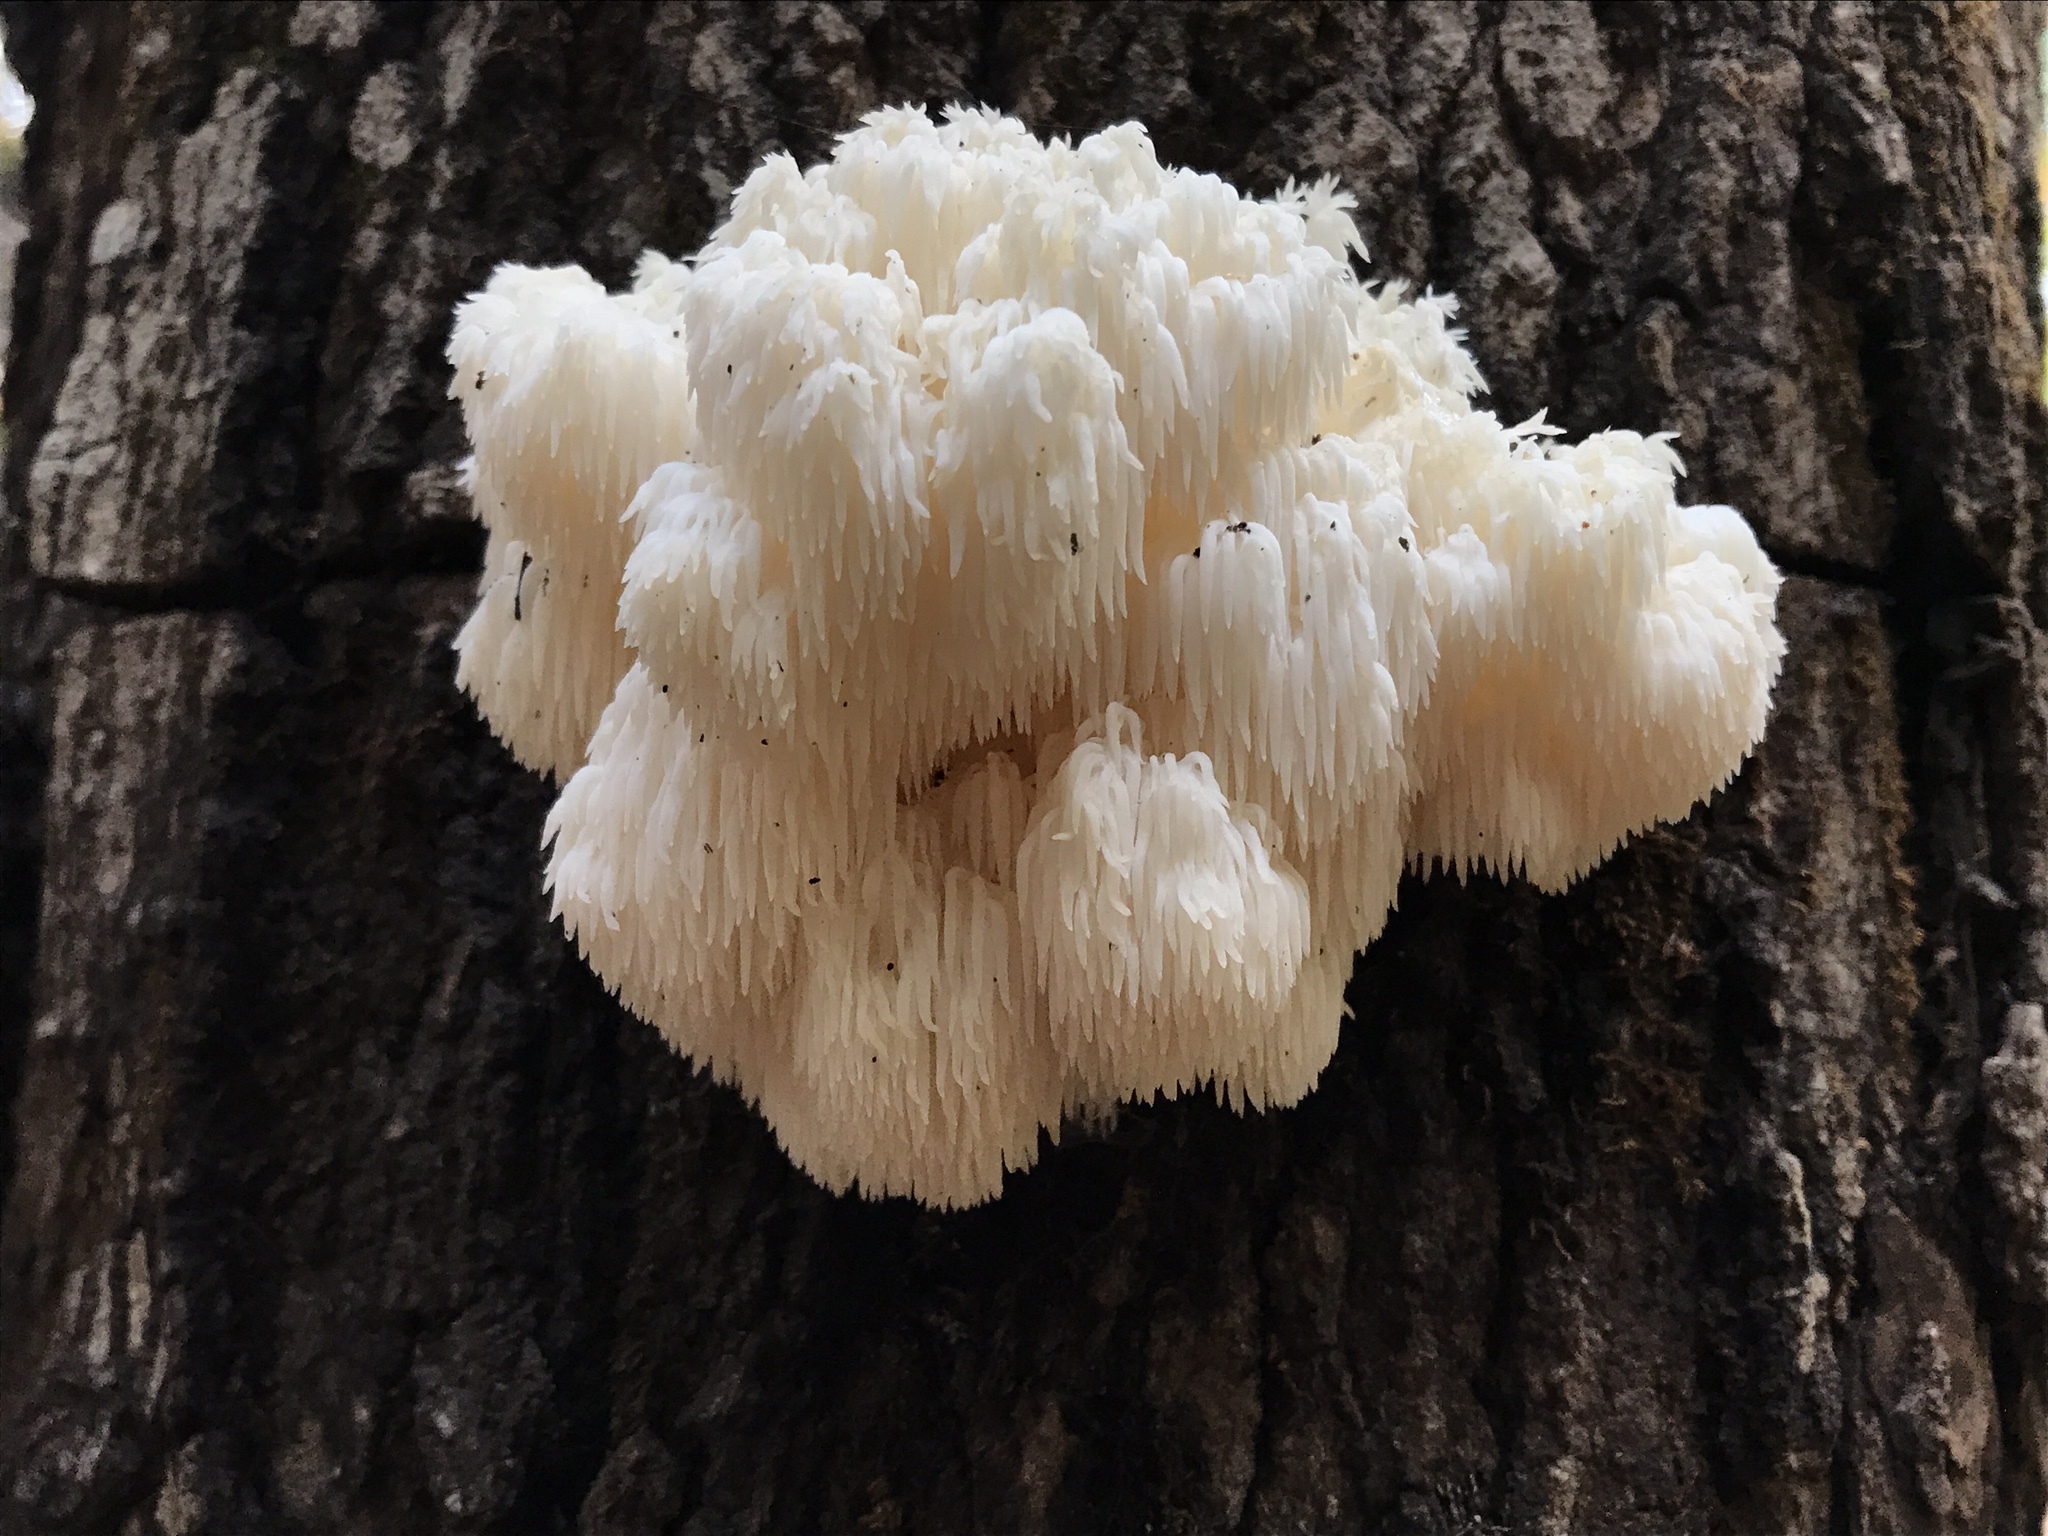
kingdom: Fungi
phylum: Basidiomycota
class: Agaricomycetes
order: Russulales
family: Hericiaceae
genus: Hericium
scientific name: Hericium americanum
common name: Bear's head tooth
